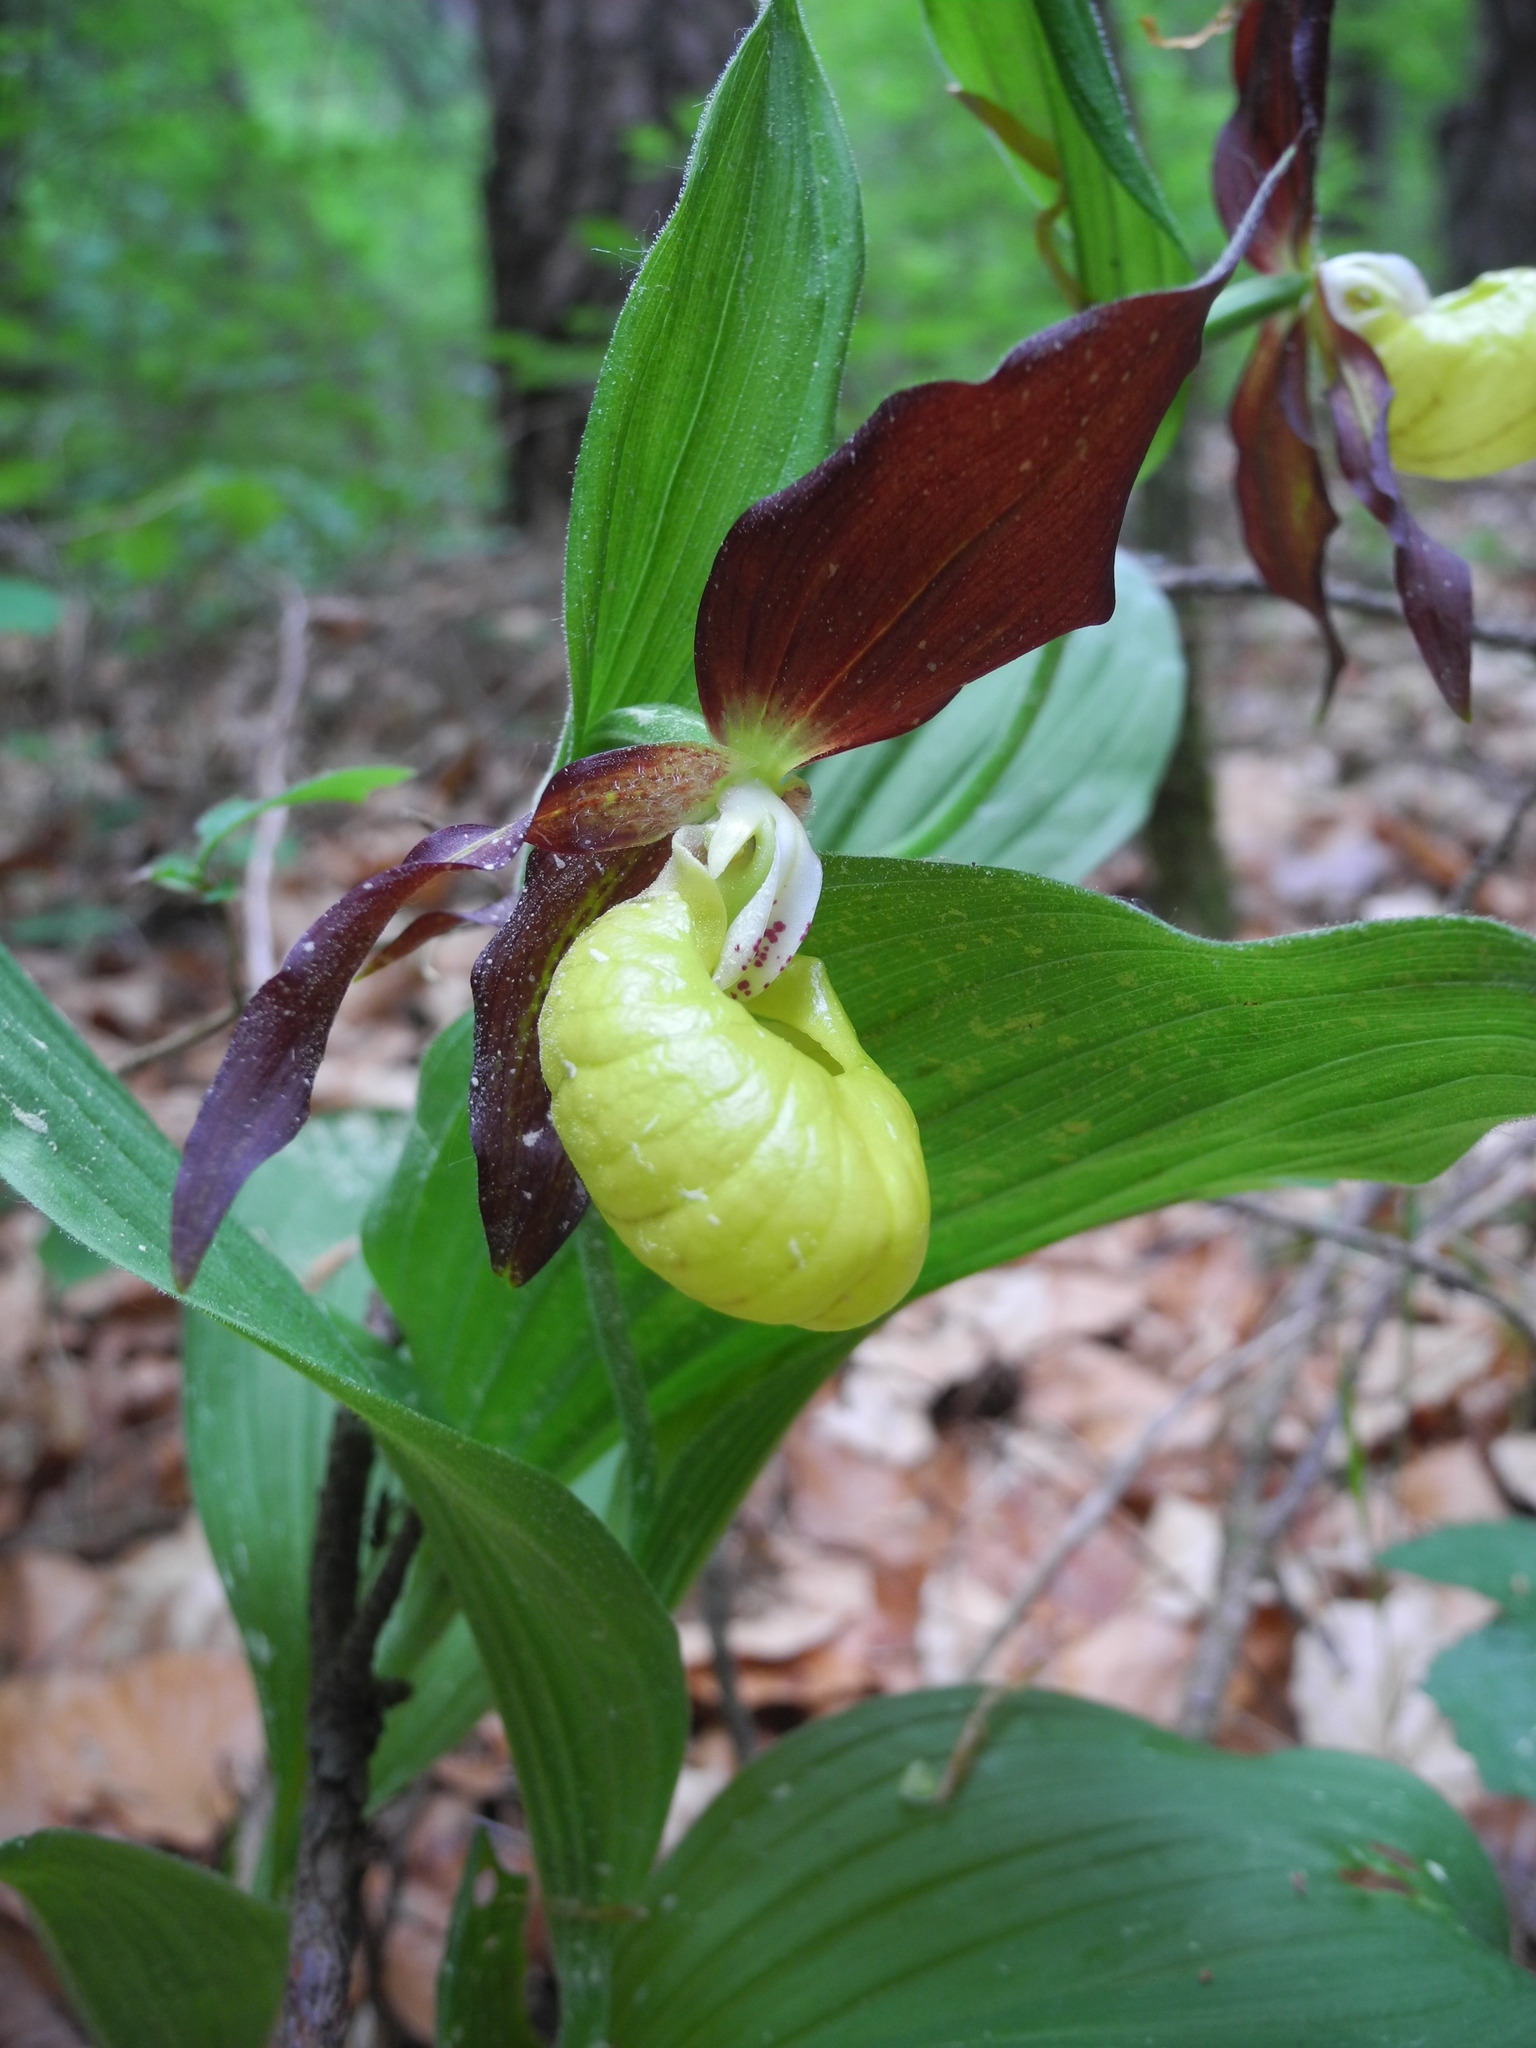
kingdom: Plantae
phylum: Tracheophyta
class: Liliopsida
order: Asparagales
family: Orchidaceae
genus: Cypripedium
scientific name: Cypripedium calceolus
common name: Lady's-slipper
